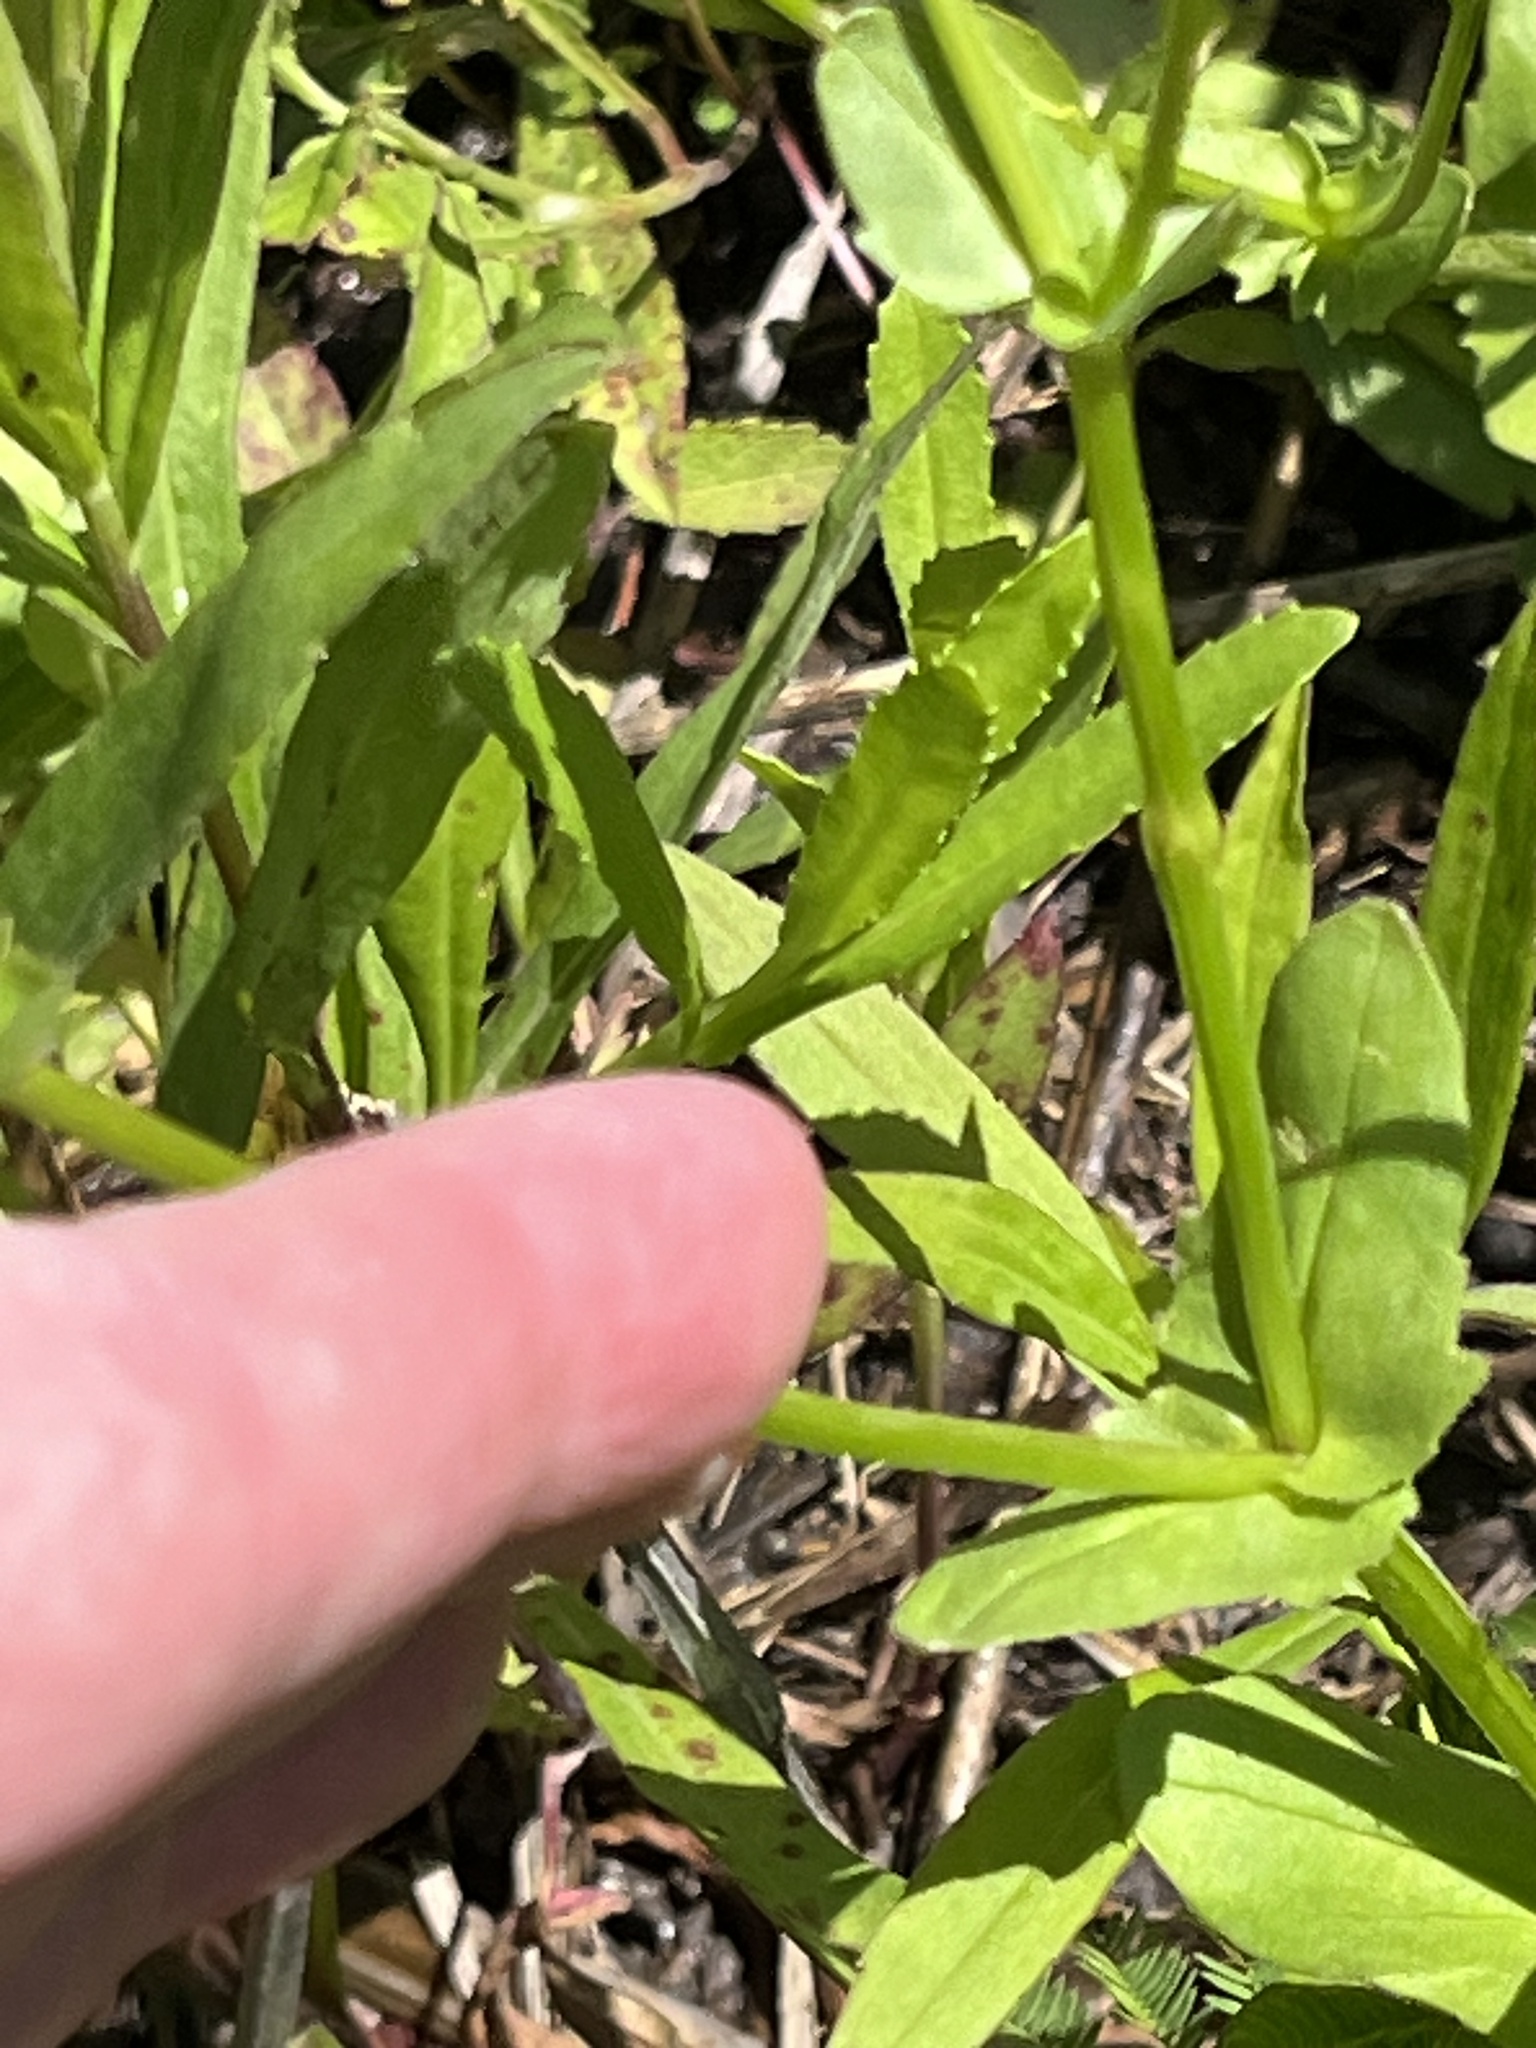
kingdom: Plantae
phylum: Tracheophyta
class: Magnoliopsida
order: Dipsacales
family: Caprifoliaceae
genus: Valerianella
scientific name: Valerianella radiata
